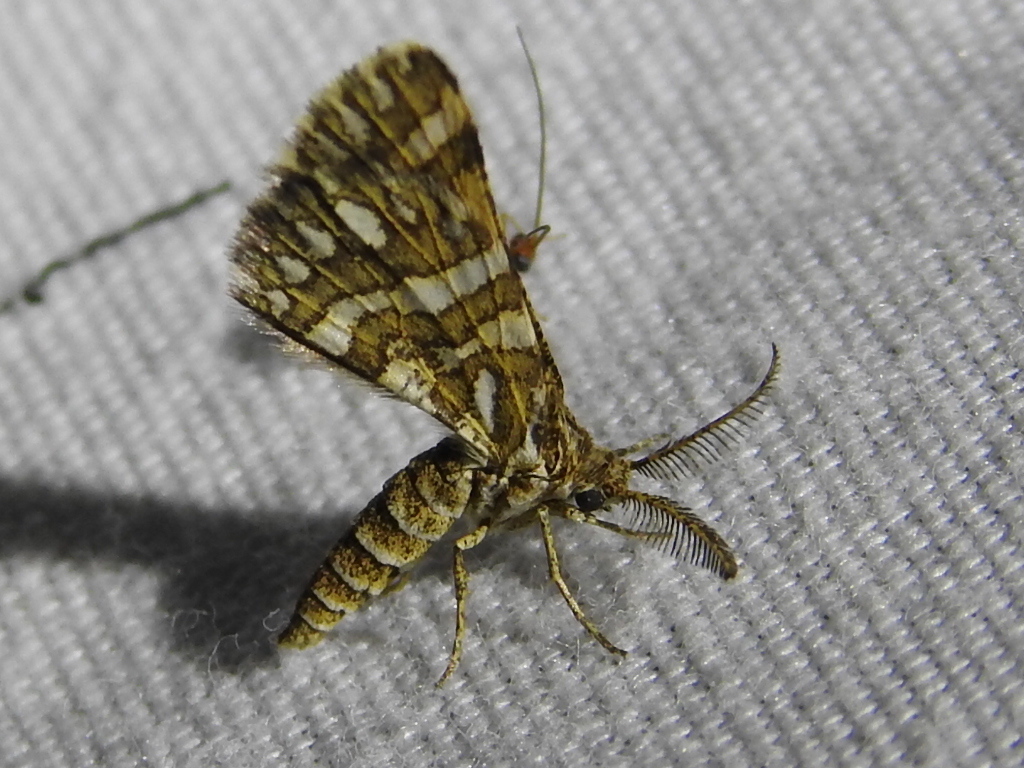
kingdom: Animalia
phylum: Arthropoda
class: Insecta
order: Lepidoptera
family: Geometridae
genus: Narraga
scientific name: Narraga fimetaria
